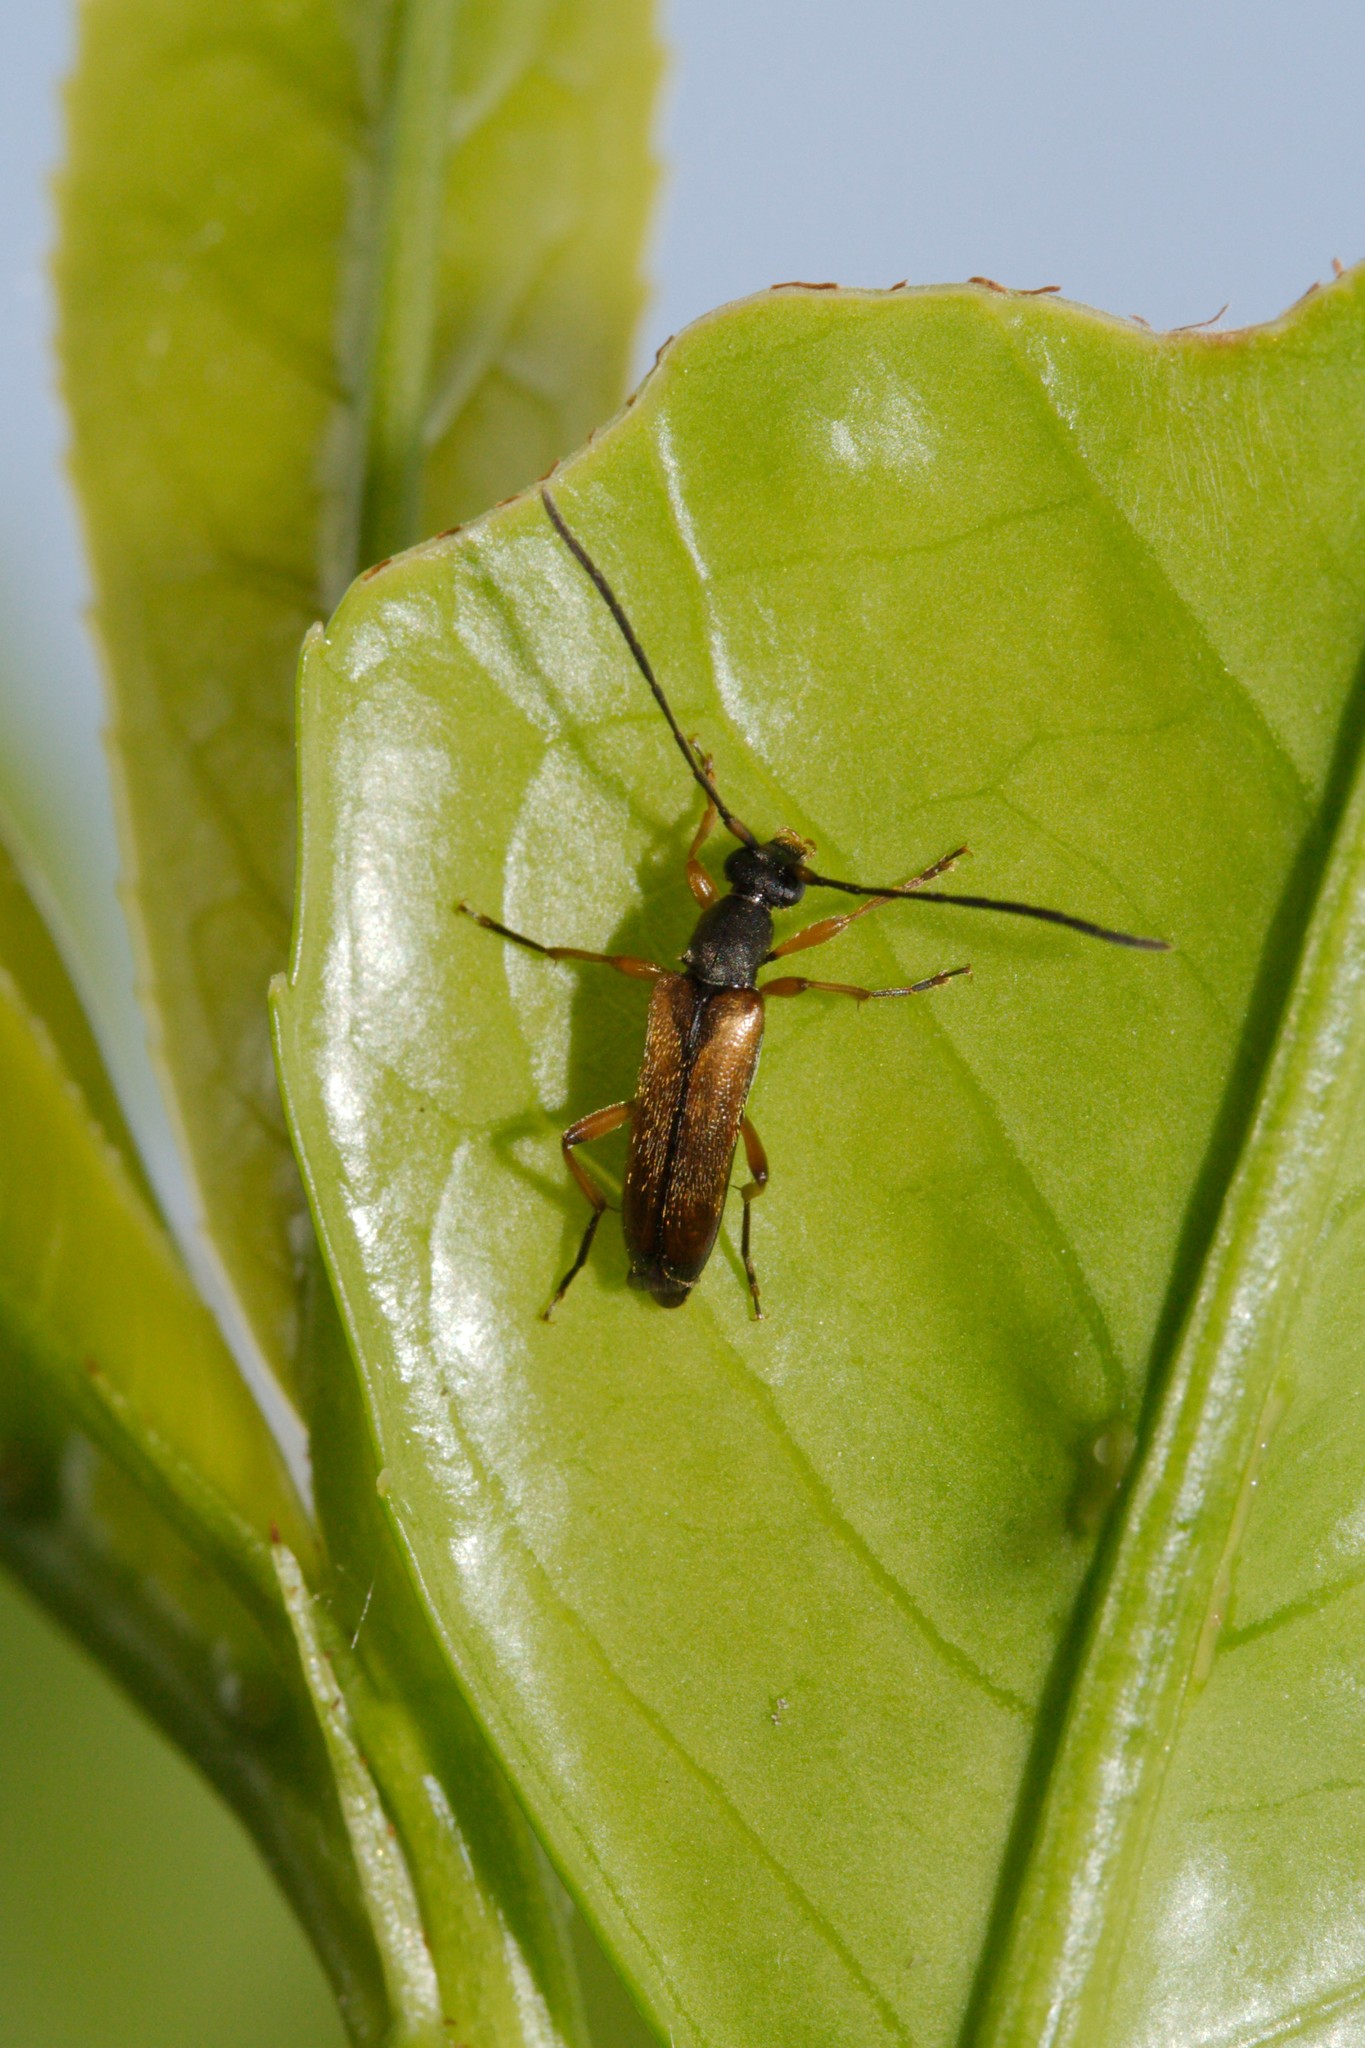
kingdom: Animalia
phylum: Arthropoda
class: Insecta
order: Coleoptera
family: Cerambycidae
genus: Alosterna
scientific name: Alosterna tabacicolor
